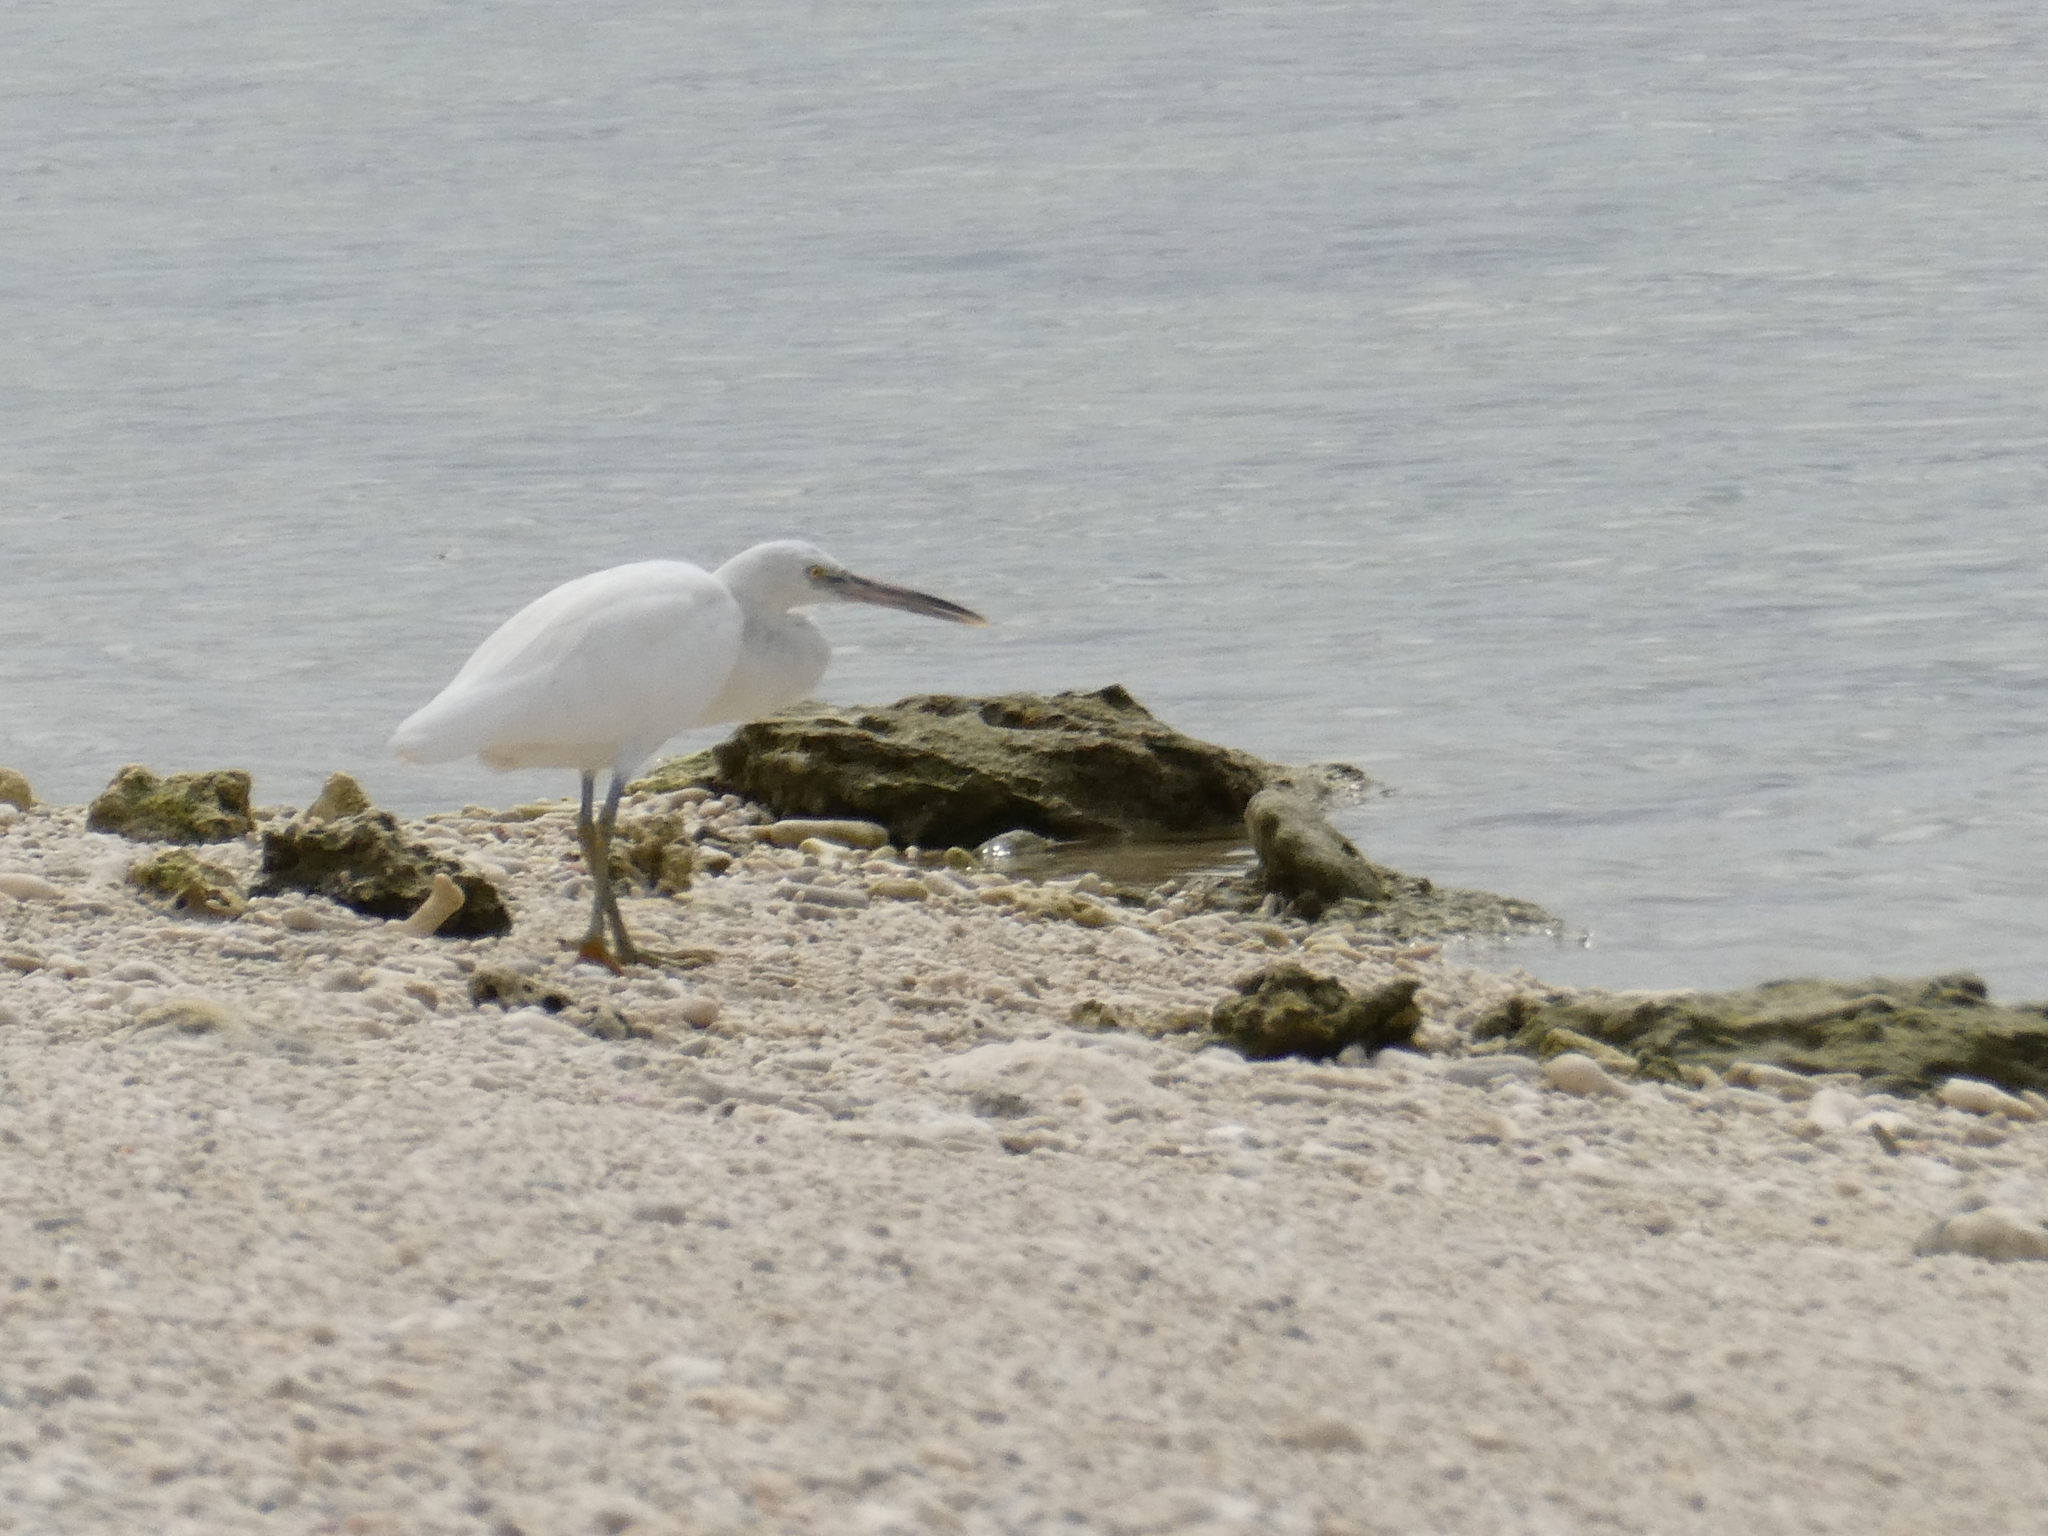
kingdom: Animalia
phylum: Chordata
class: Aves
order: Pelecaniformes
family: Ardeidae
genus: Egretta
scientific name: Egretta sacra
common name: Pacific reef heron
